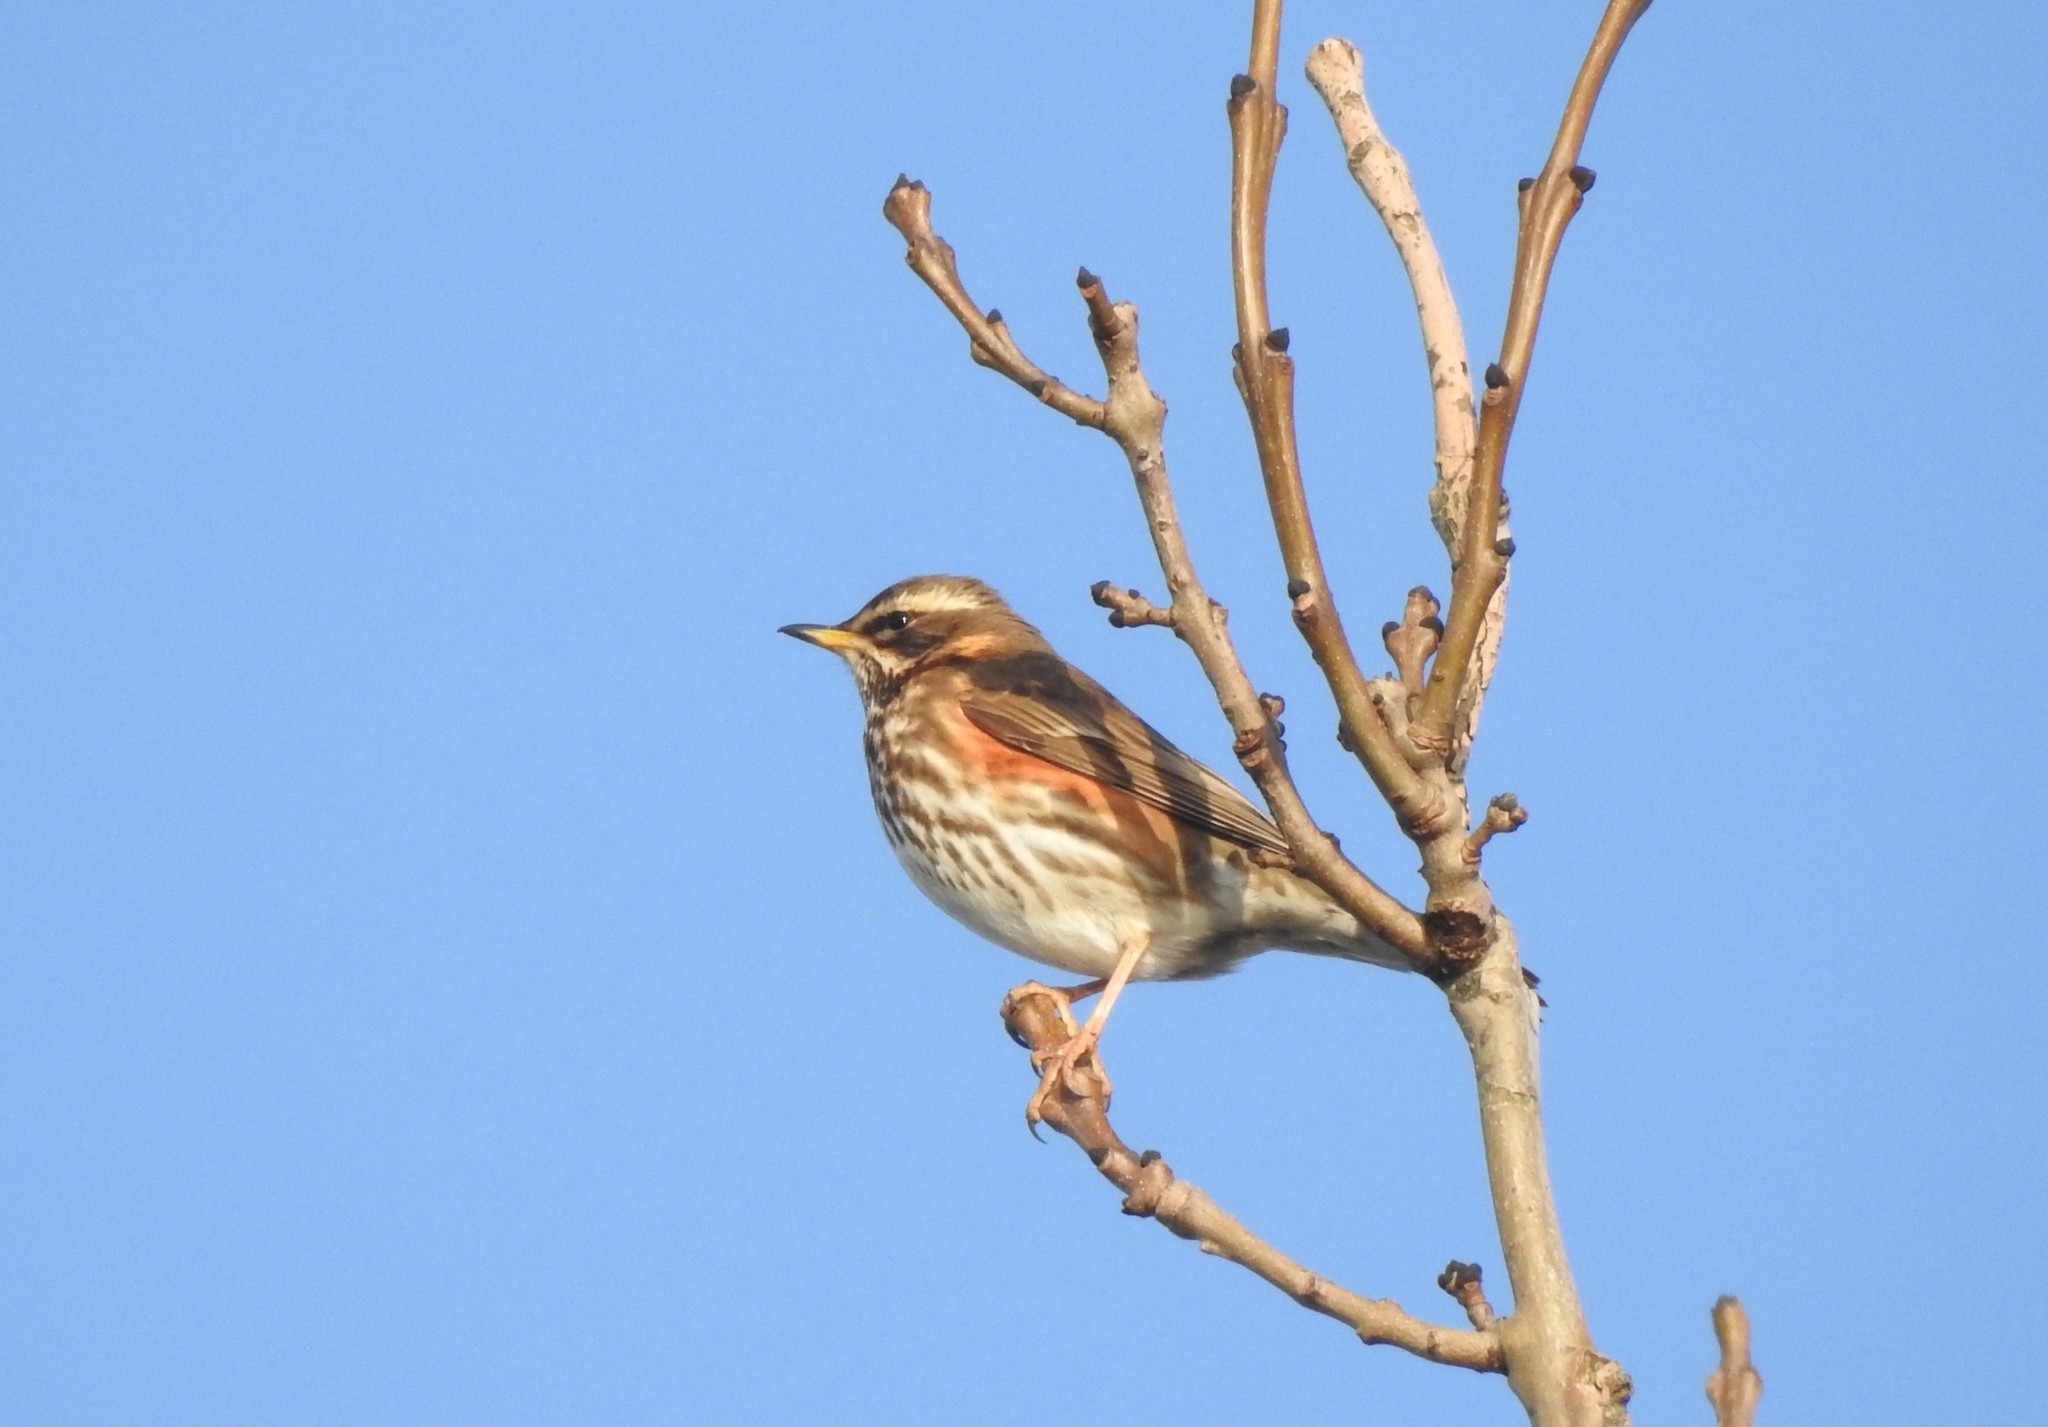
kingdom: Animalia
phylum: Chordata
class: Aves
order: Passeriformes
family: Turdidae
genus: Turdus
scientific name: Turdus iliacus
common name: Redwing
